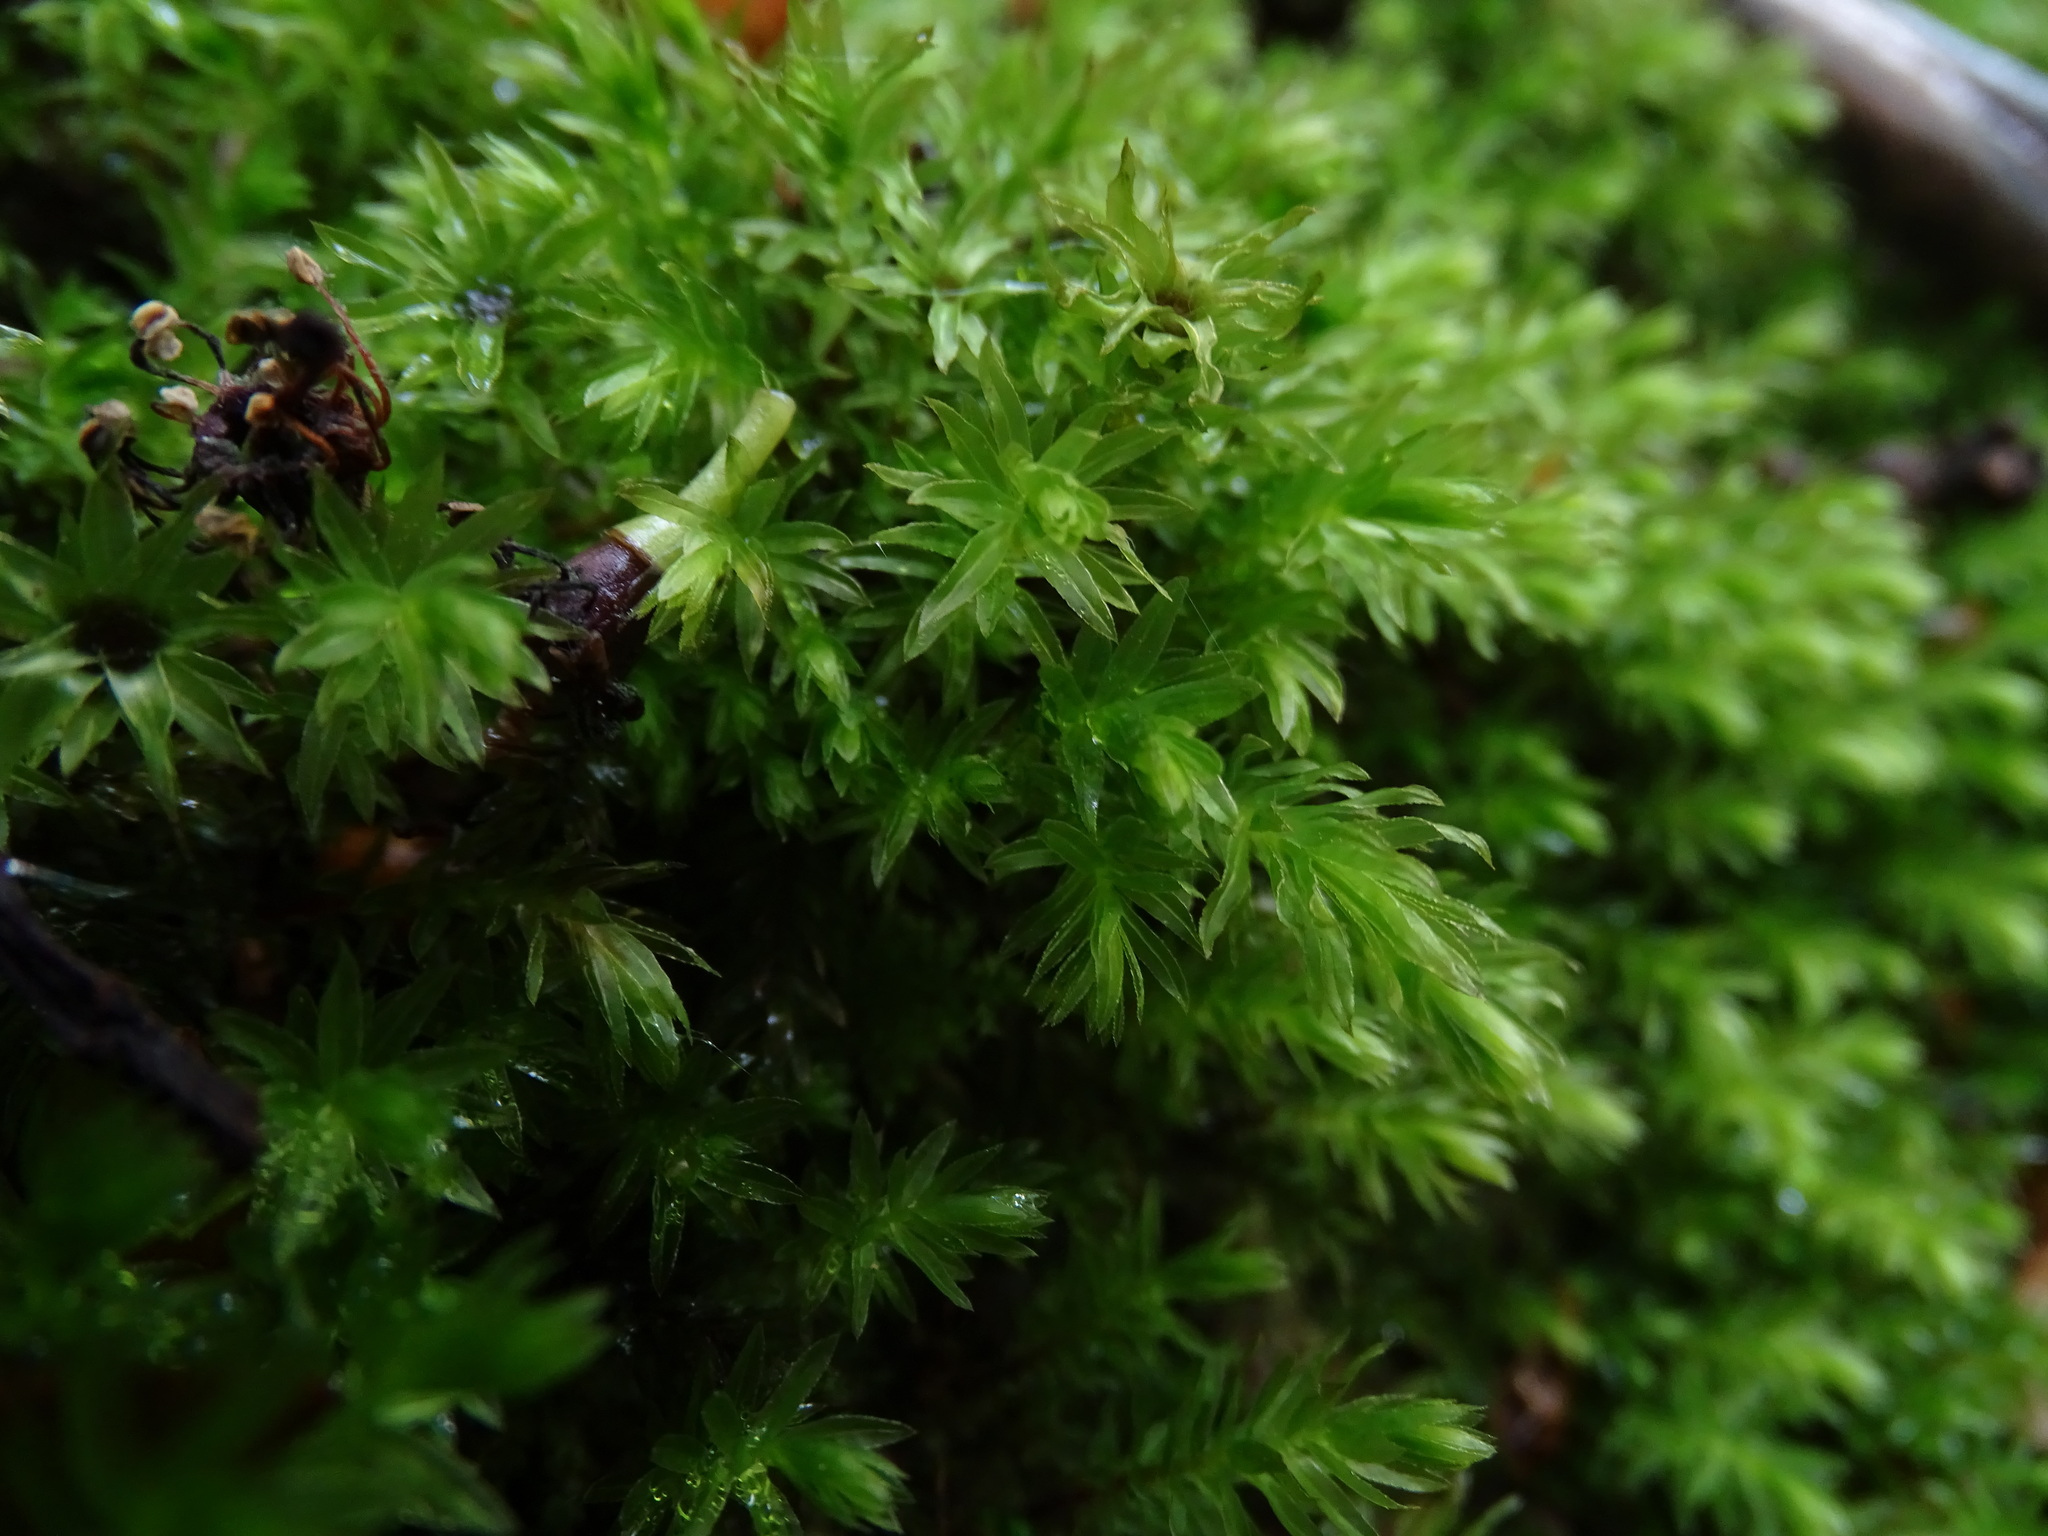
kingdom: Plantae
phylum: Bryophyta
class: Bryopsida
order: Bryales
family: Mniaceae
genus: Mnium
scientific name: Mnium hornum
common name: Swan's-neck leafy moss
